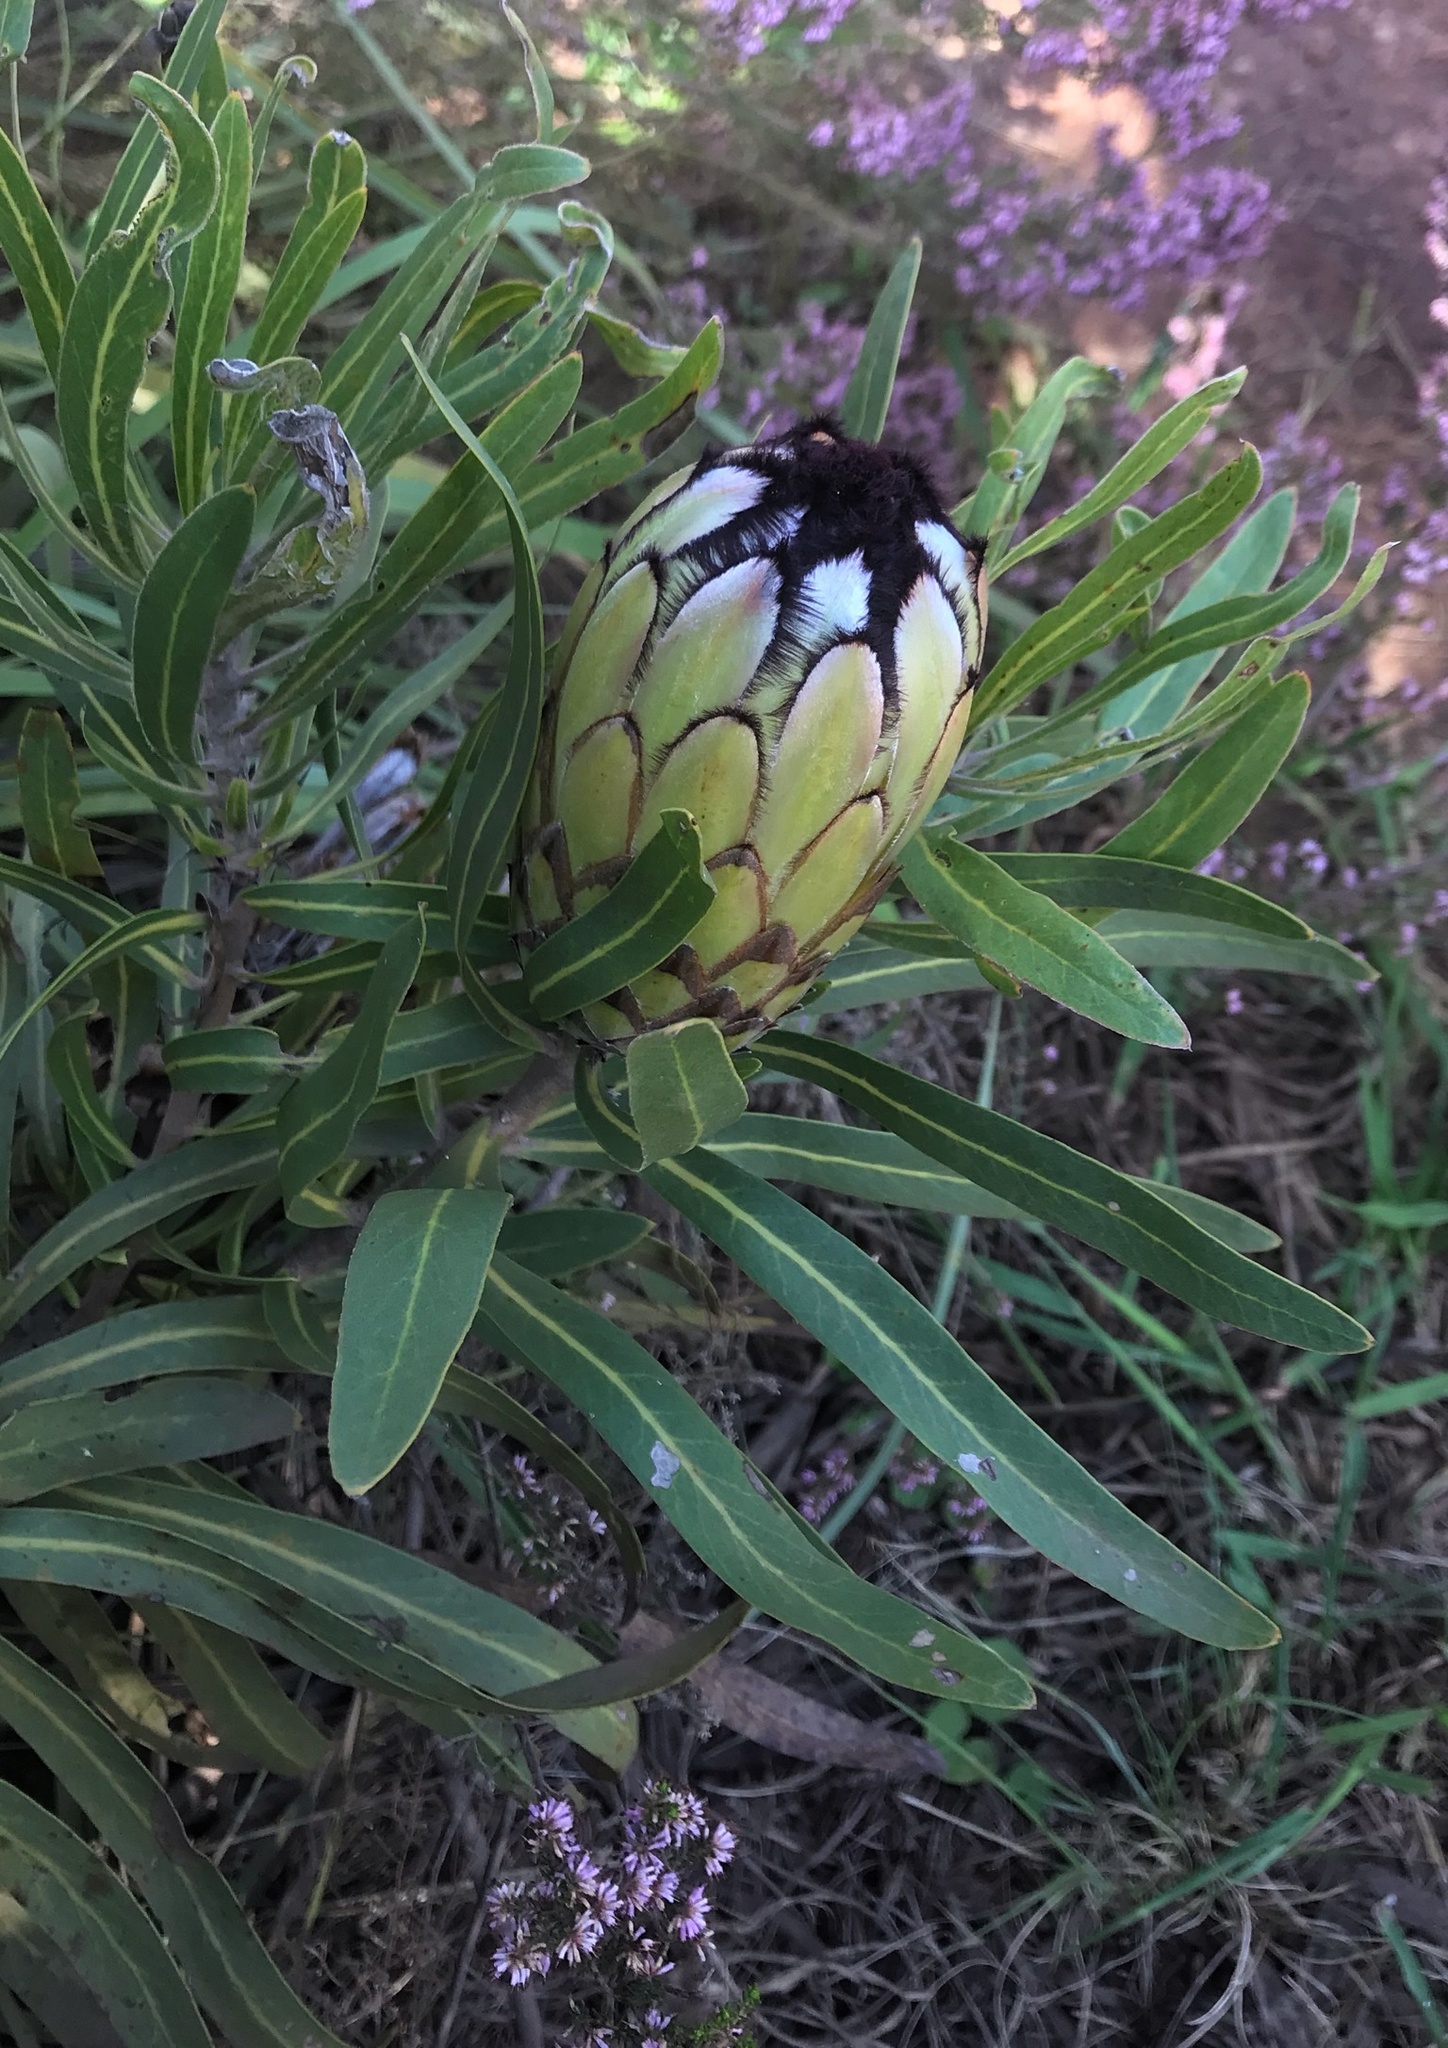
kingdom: Plantae
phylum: Tracheophyta
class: Magnoliopsida
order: Proteales
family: Proteaceae
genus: Protea
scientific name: Protea neriifolia
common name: Blue sugarbush
